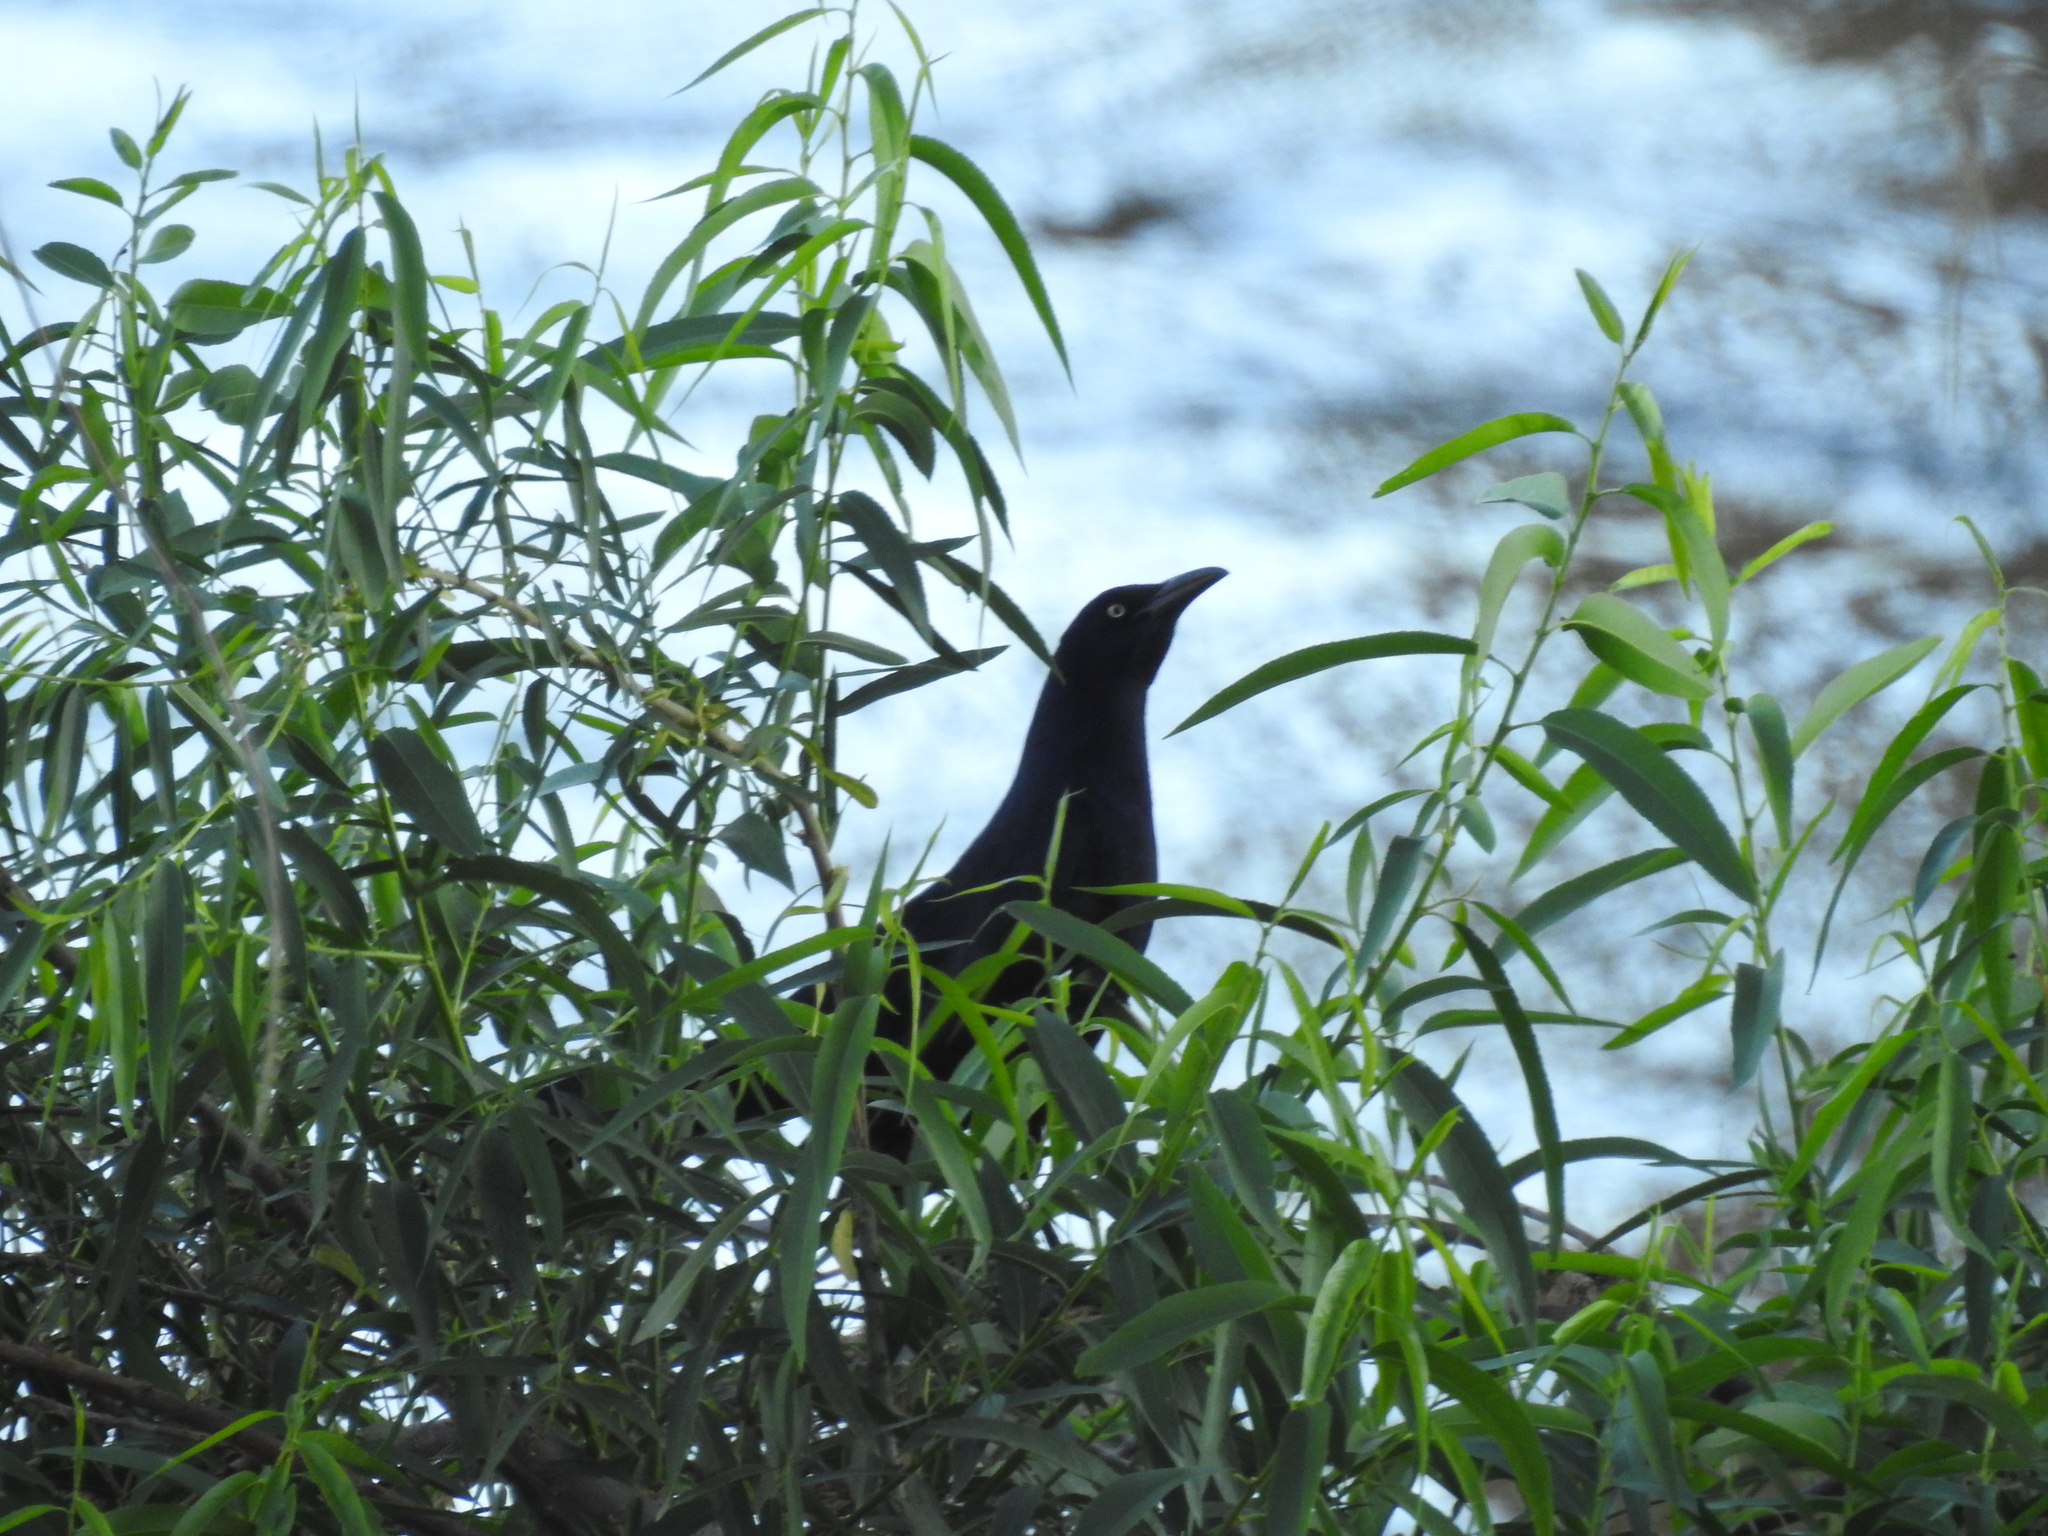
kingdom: Animalia
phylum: Chordata
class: Aves
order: Passeriformes
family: Icteridae
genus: Quiscalus
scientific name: Quiscalus mexicanus
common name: Great-tailed grackle
